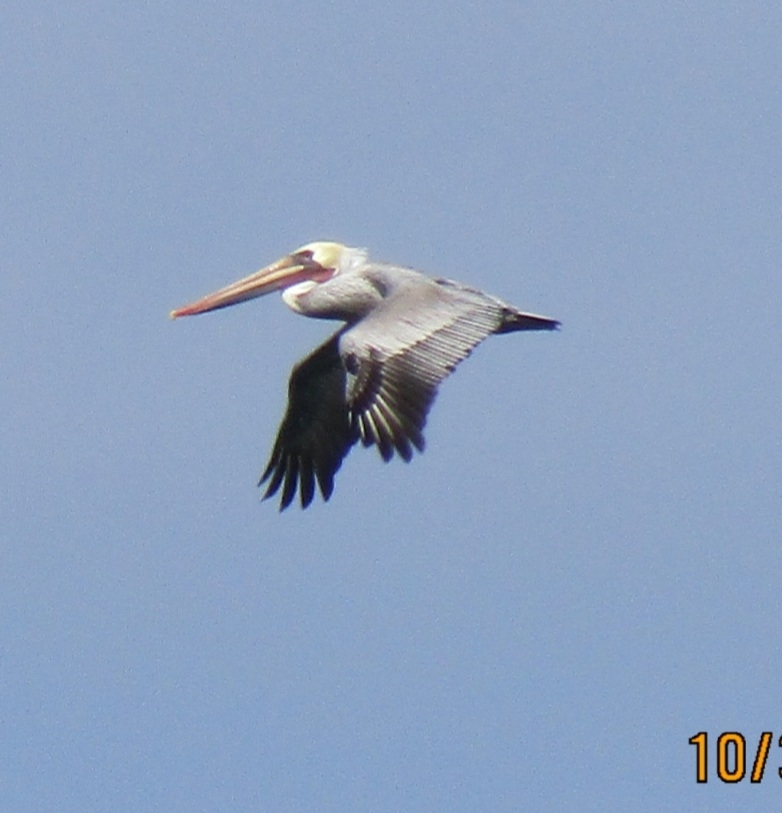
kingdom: Animalia
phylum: Chordata
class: Aves
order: Pelecaniformes
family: Pelecanidae
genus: Pelecanus
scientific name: Pelecanus occidentalis
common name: Brown pelican
